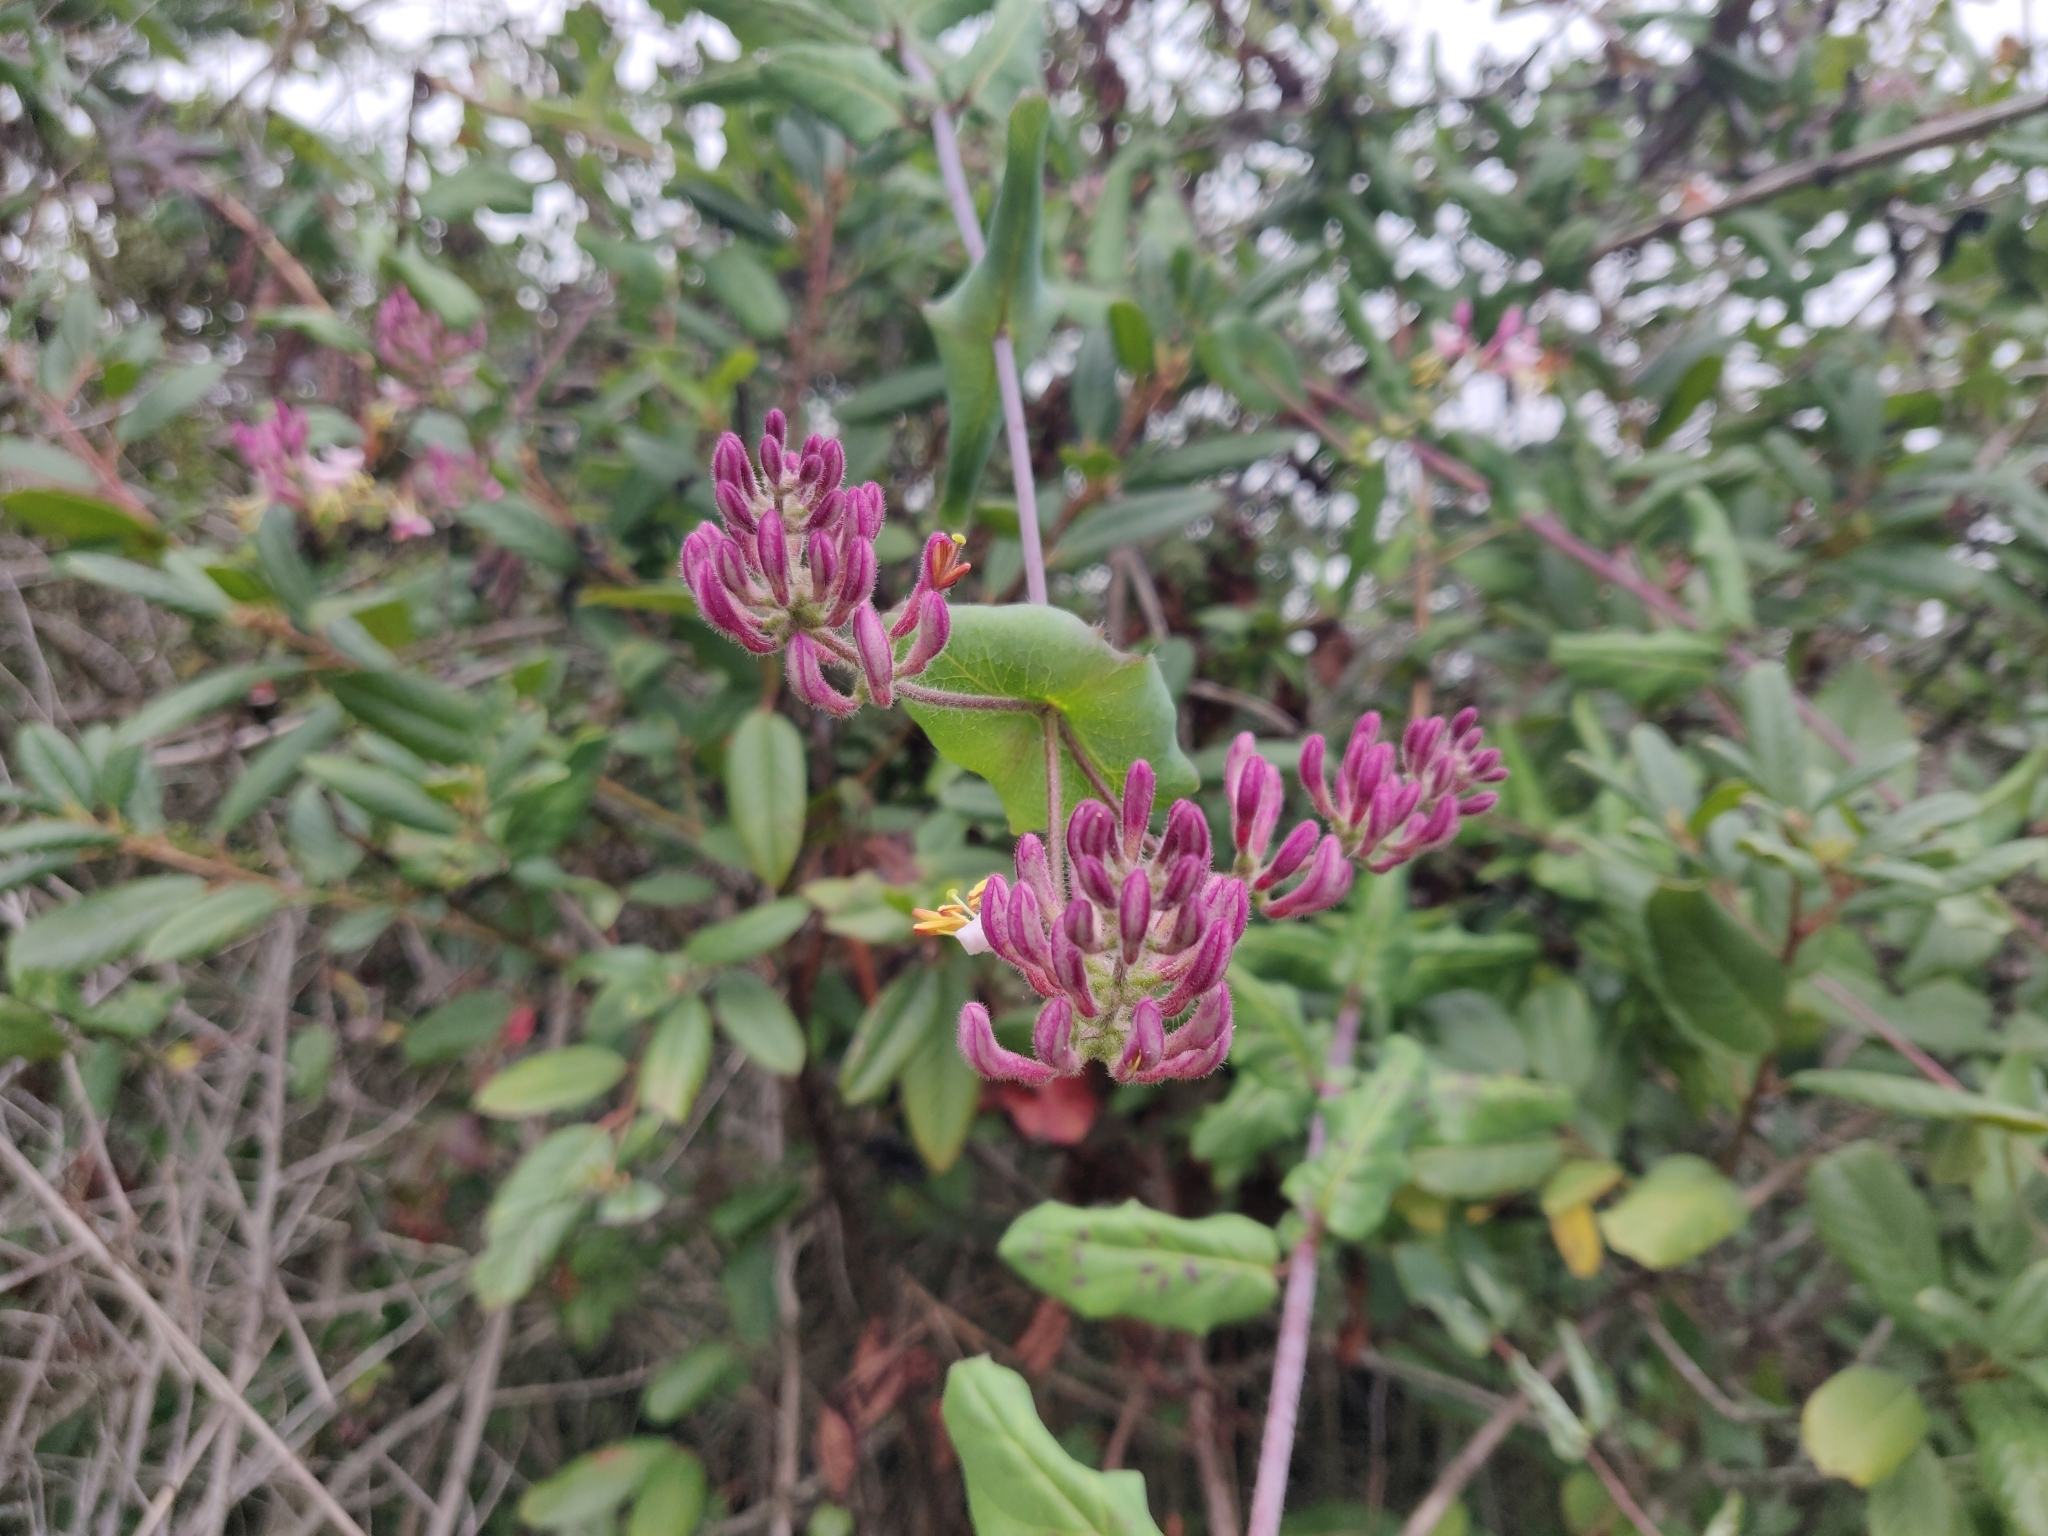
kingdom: Plantae
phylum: Tracheophyta
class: Magnoliopsida
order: Dipsacales
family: Caprifoliaceae
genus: Lonicera
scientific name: Lonicera hispidula
